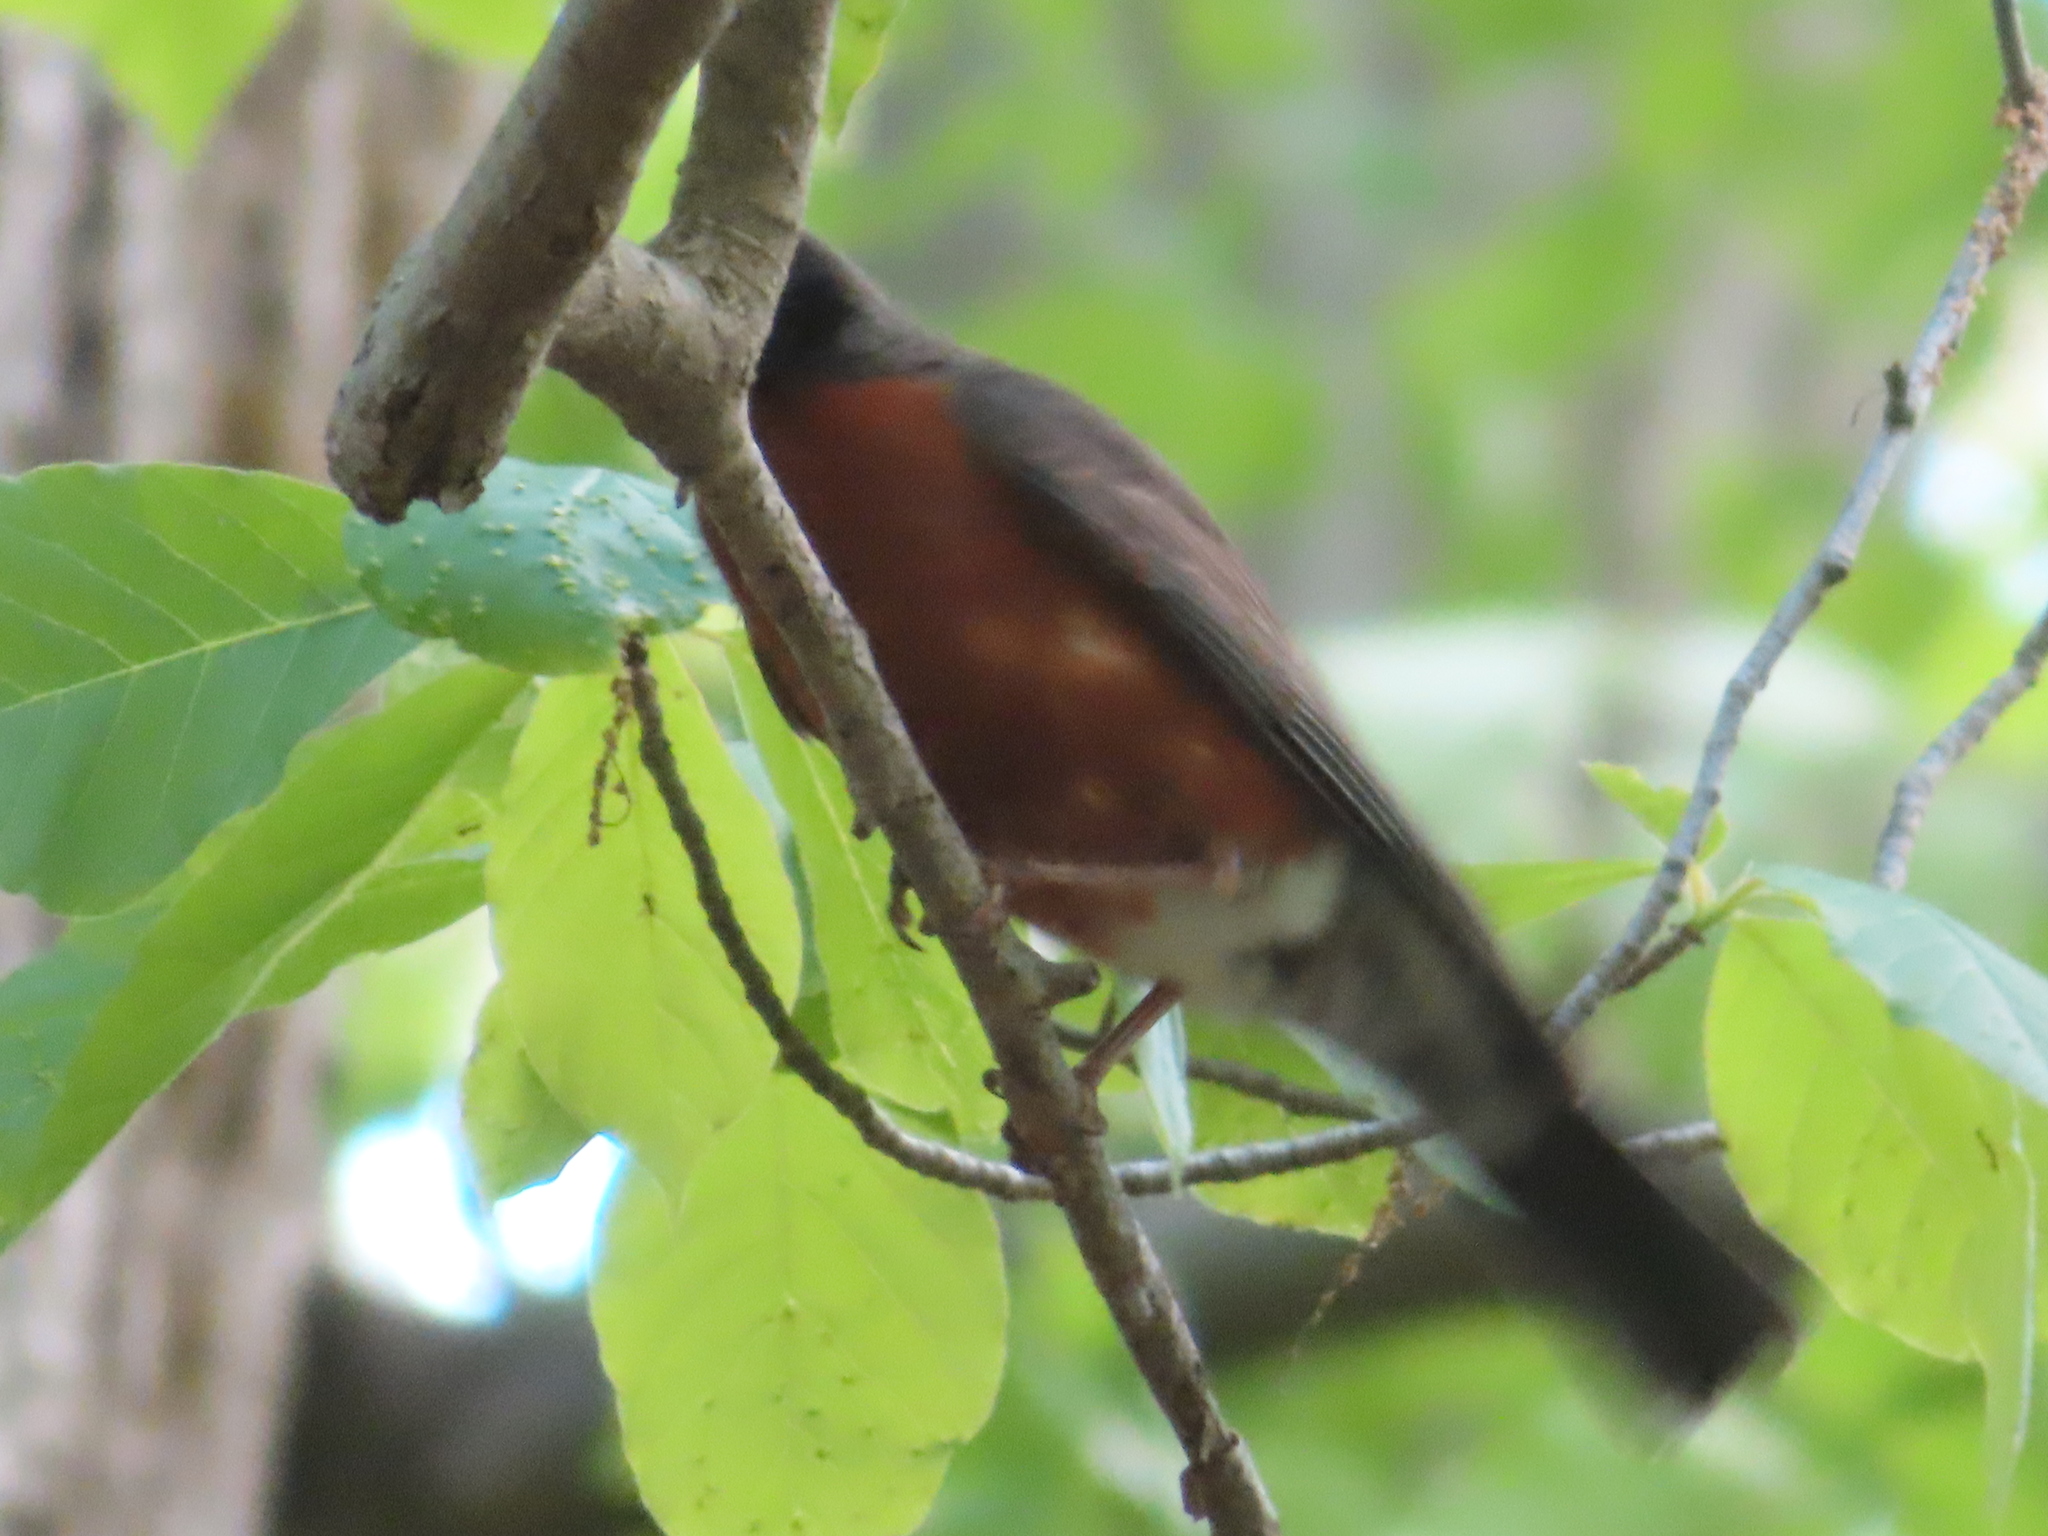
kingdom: Animalia
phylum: Chordata
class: Aves
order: Passeriformes
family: Turdidae
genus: Turdus
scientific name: Turdus migratorius
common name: American robin
